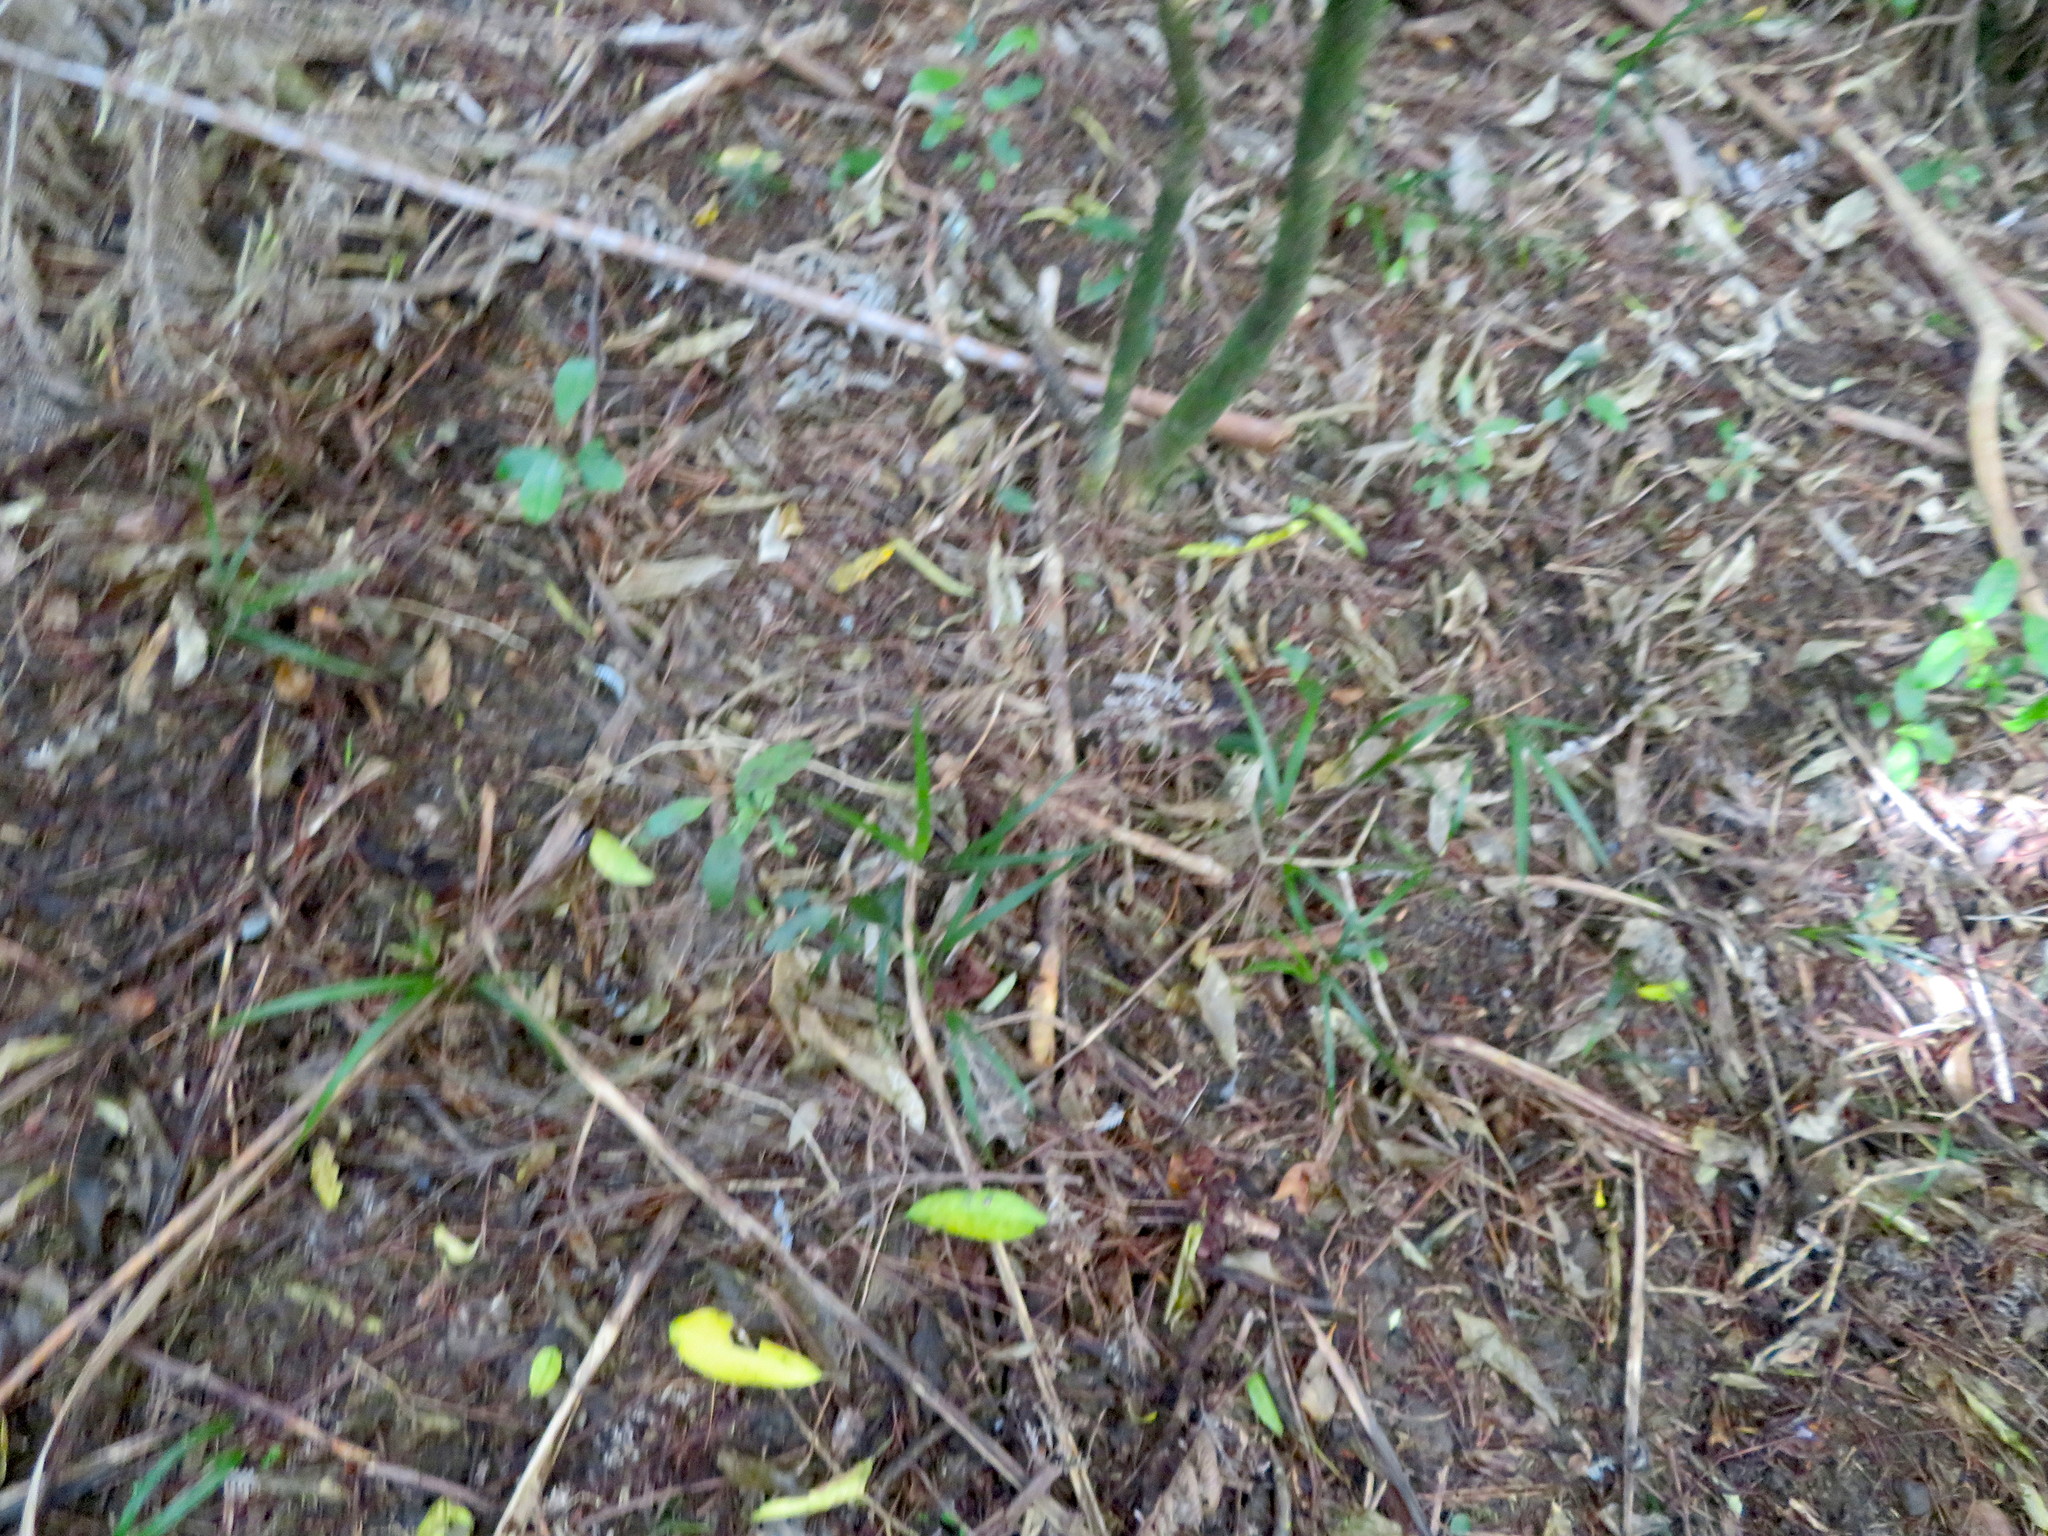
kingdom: Plantae
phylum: Tracheophyta
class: Liliopsida
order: Arecales
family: Arecaceae
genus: Rhopalostylis
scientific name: Rhopalostylis sapida
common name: Feather-duster palm
